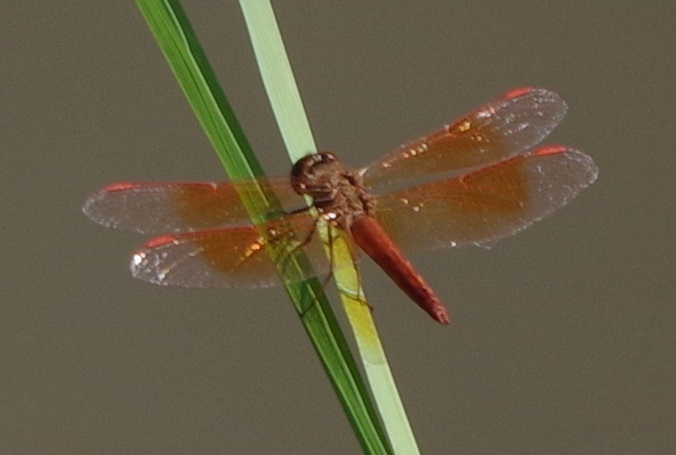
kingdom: Animalia
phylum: Arthropoda
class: Insecta
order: Odonata
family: Libellulidae
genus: Brachythemis
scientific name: Brachythemis contaminata
